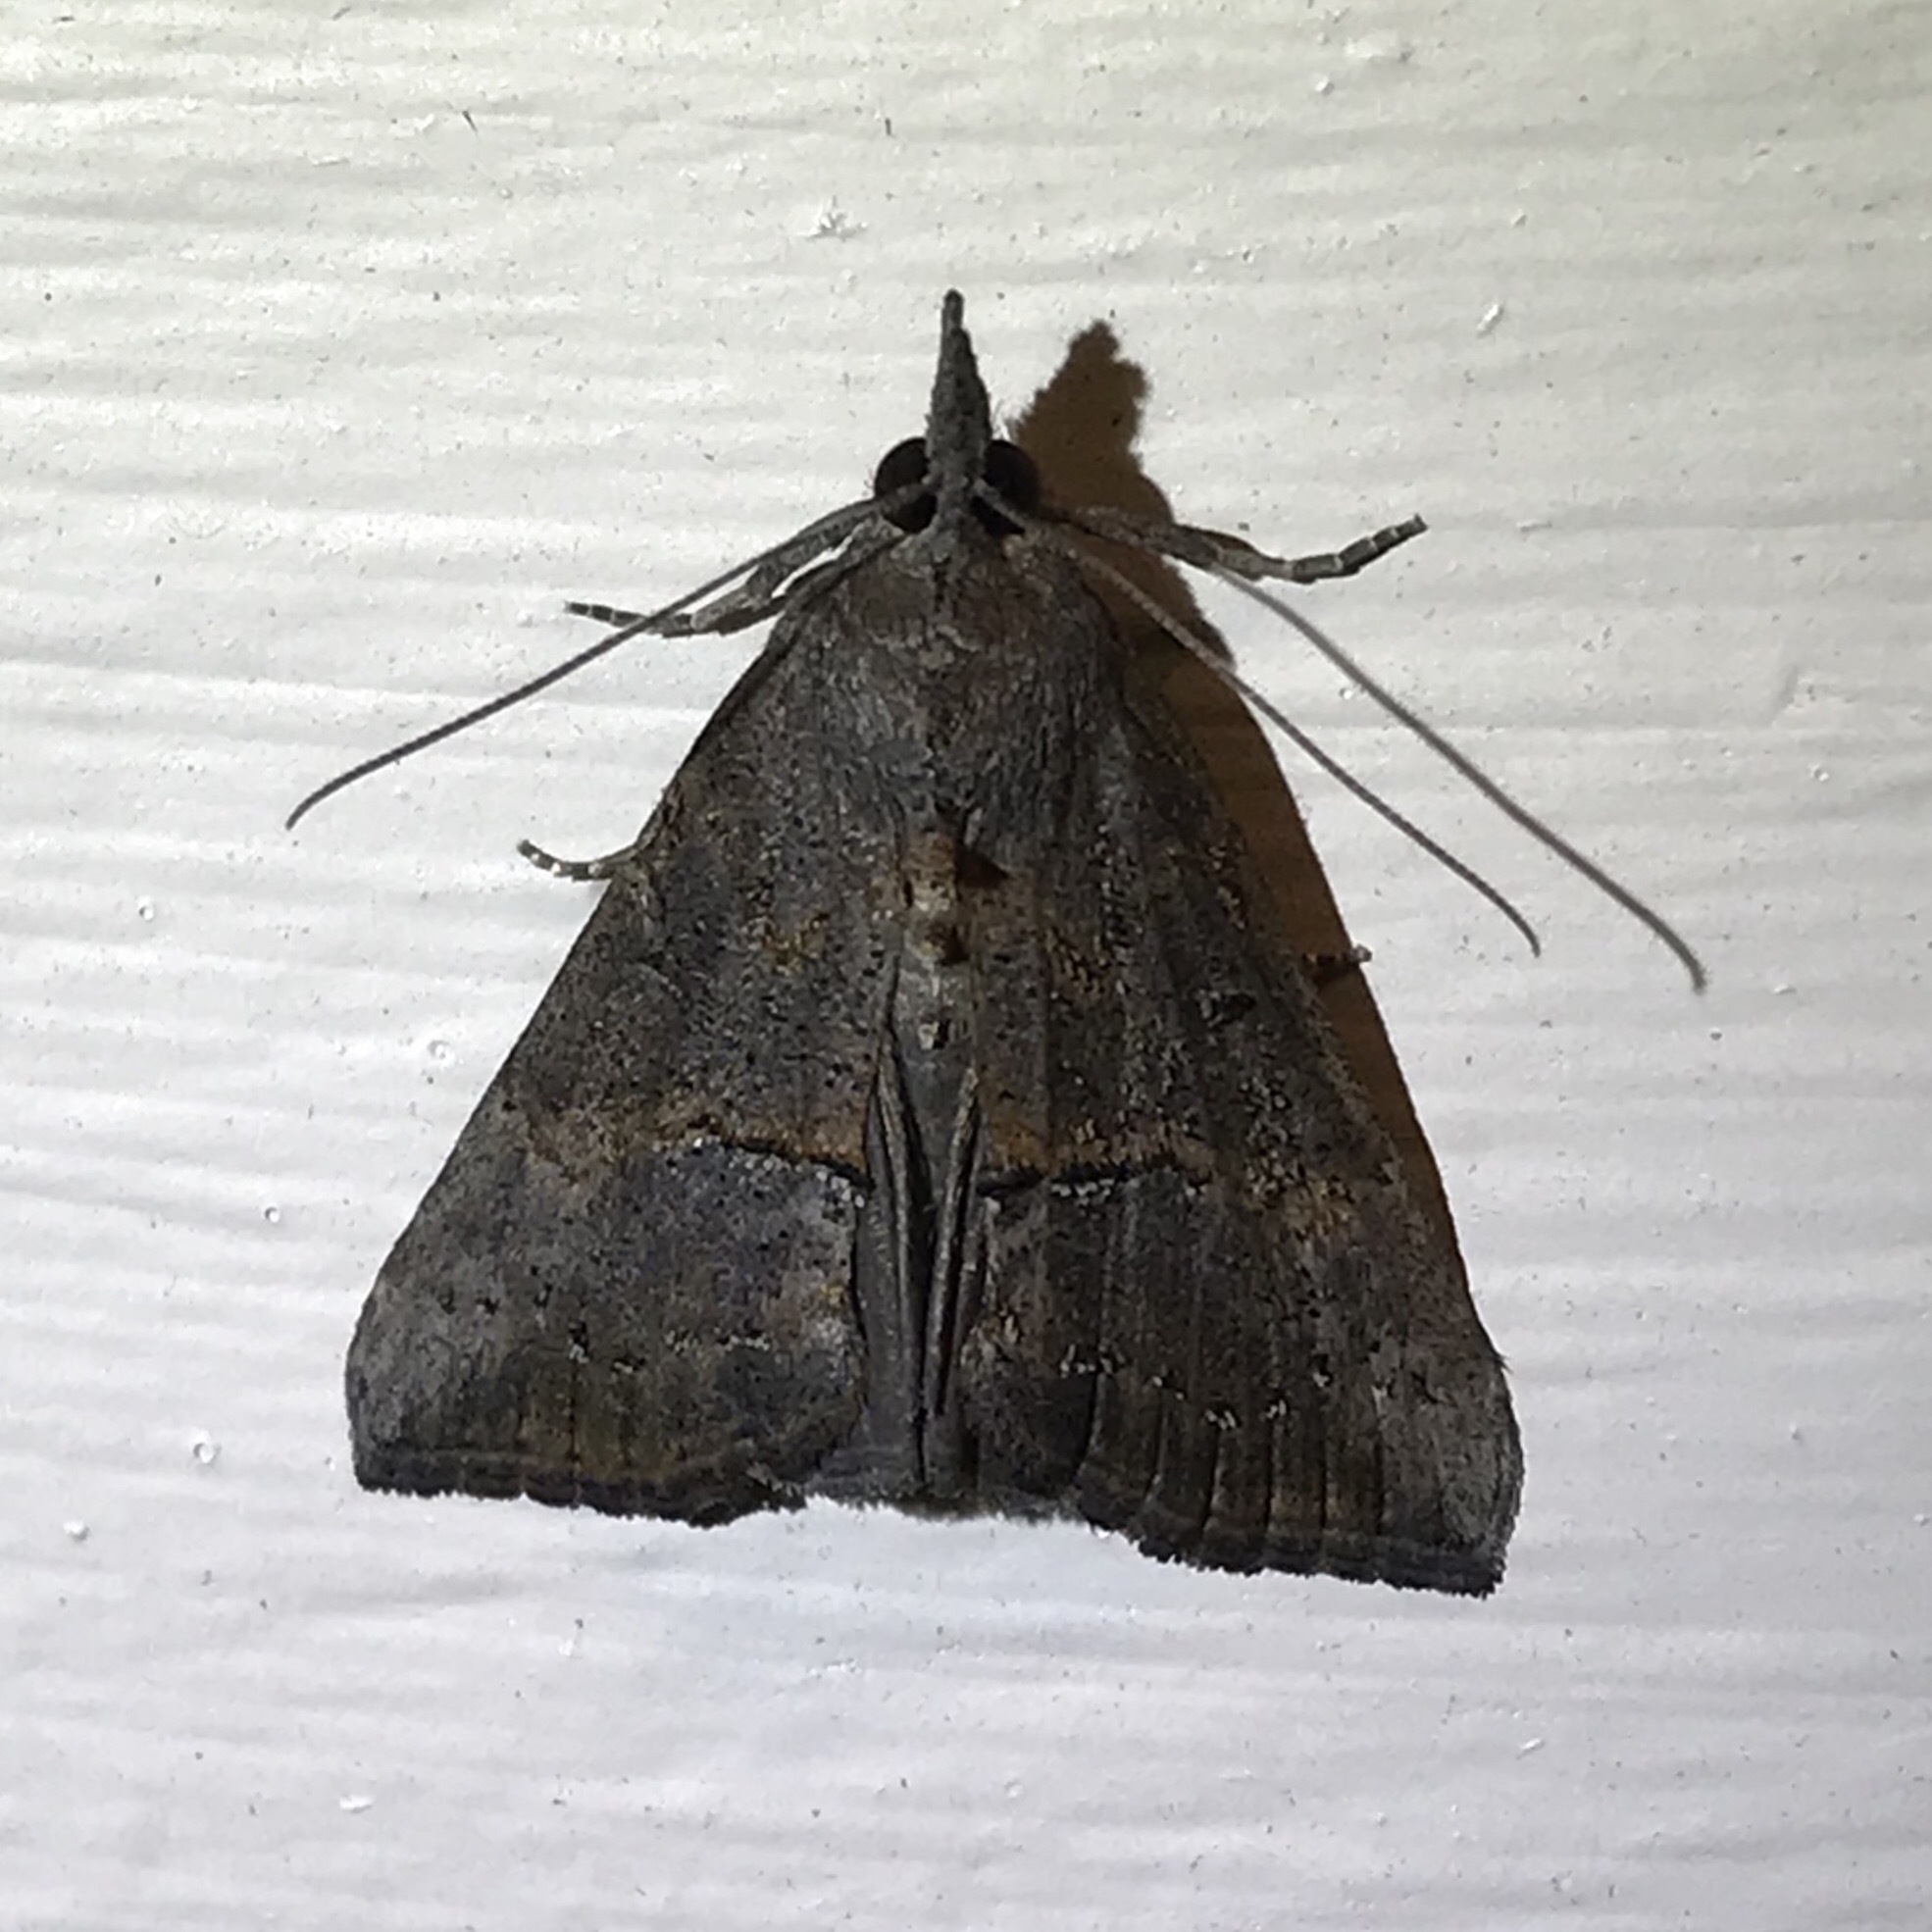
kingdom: Animalia
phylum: Arthropoda
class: Insecta
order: Lepidoptera
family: Erebidae
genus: Hypena
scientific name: Hypena scabra
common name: Green cloverworm
